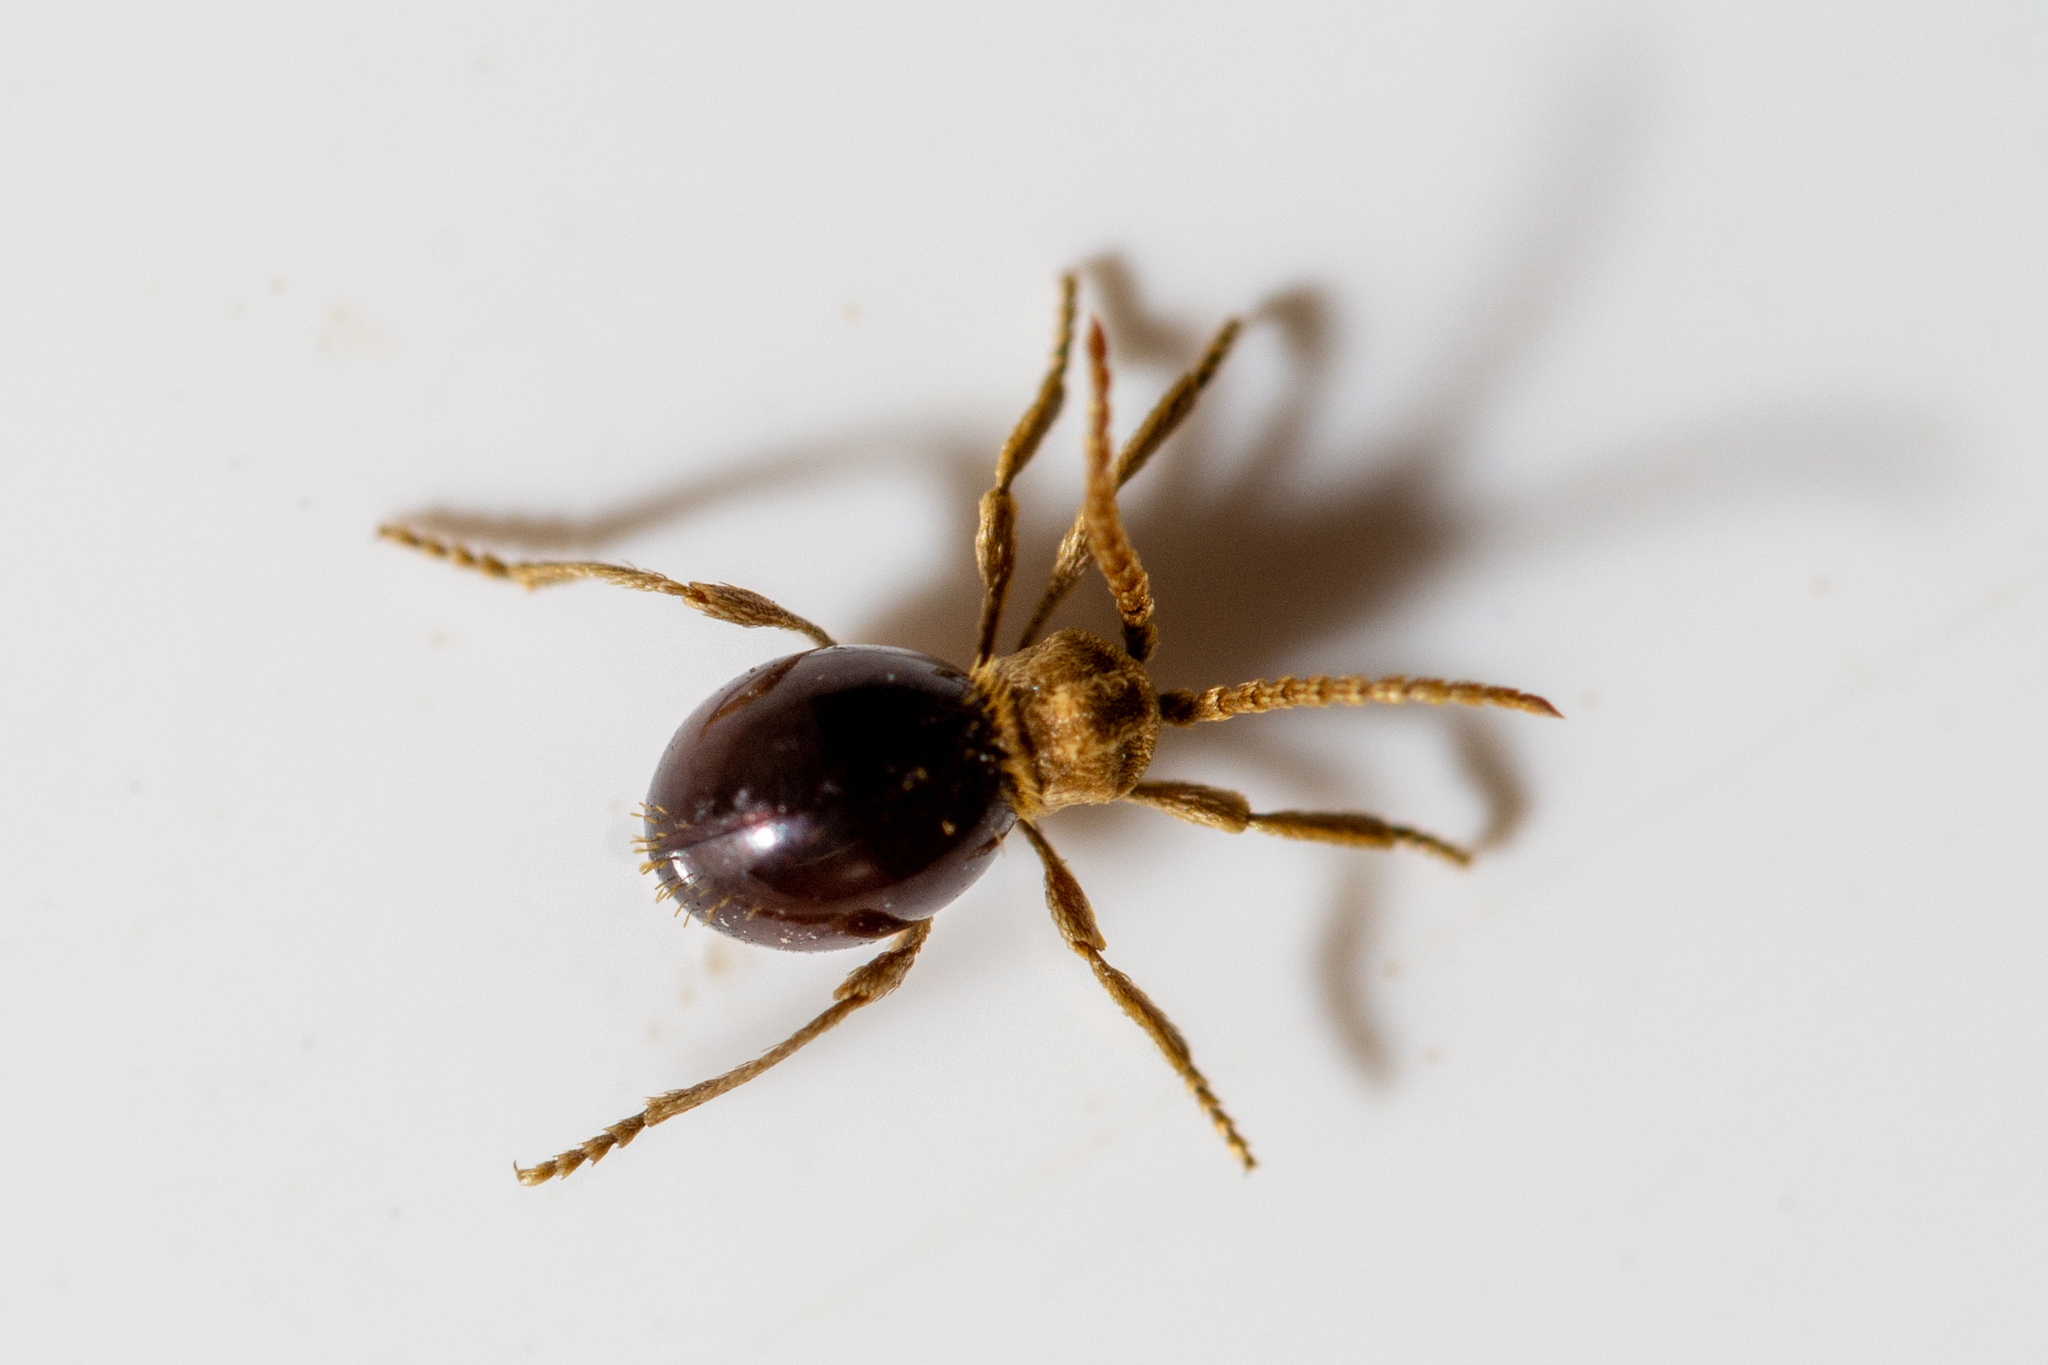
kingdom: Animalia
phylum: Arthropoda
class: Insecta
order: Coleoptera
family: Ptinidae
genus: Mezium
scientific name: Mezium affine
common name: Shiny spider beetle
